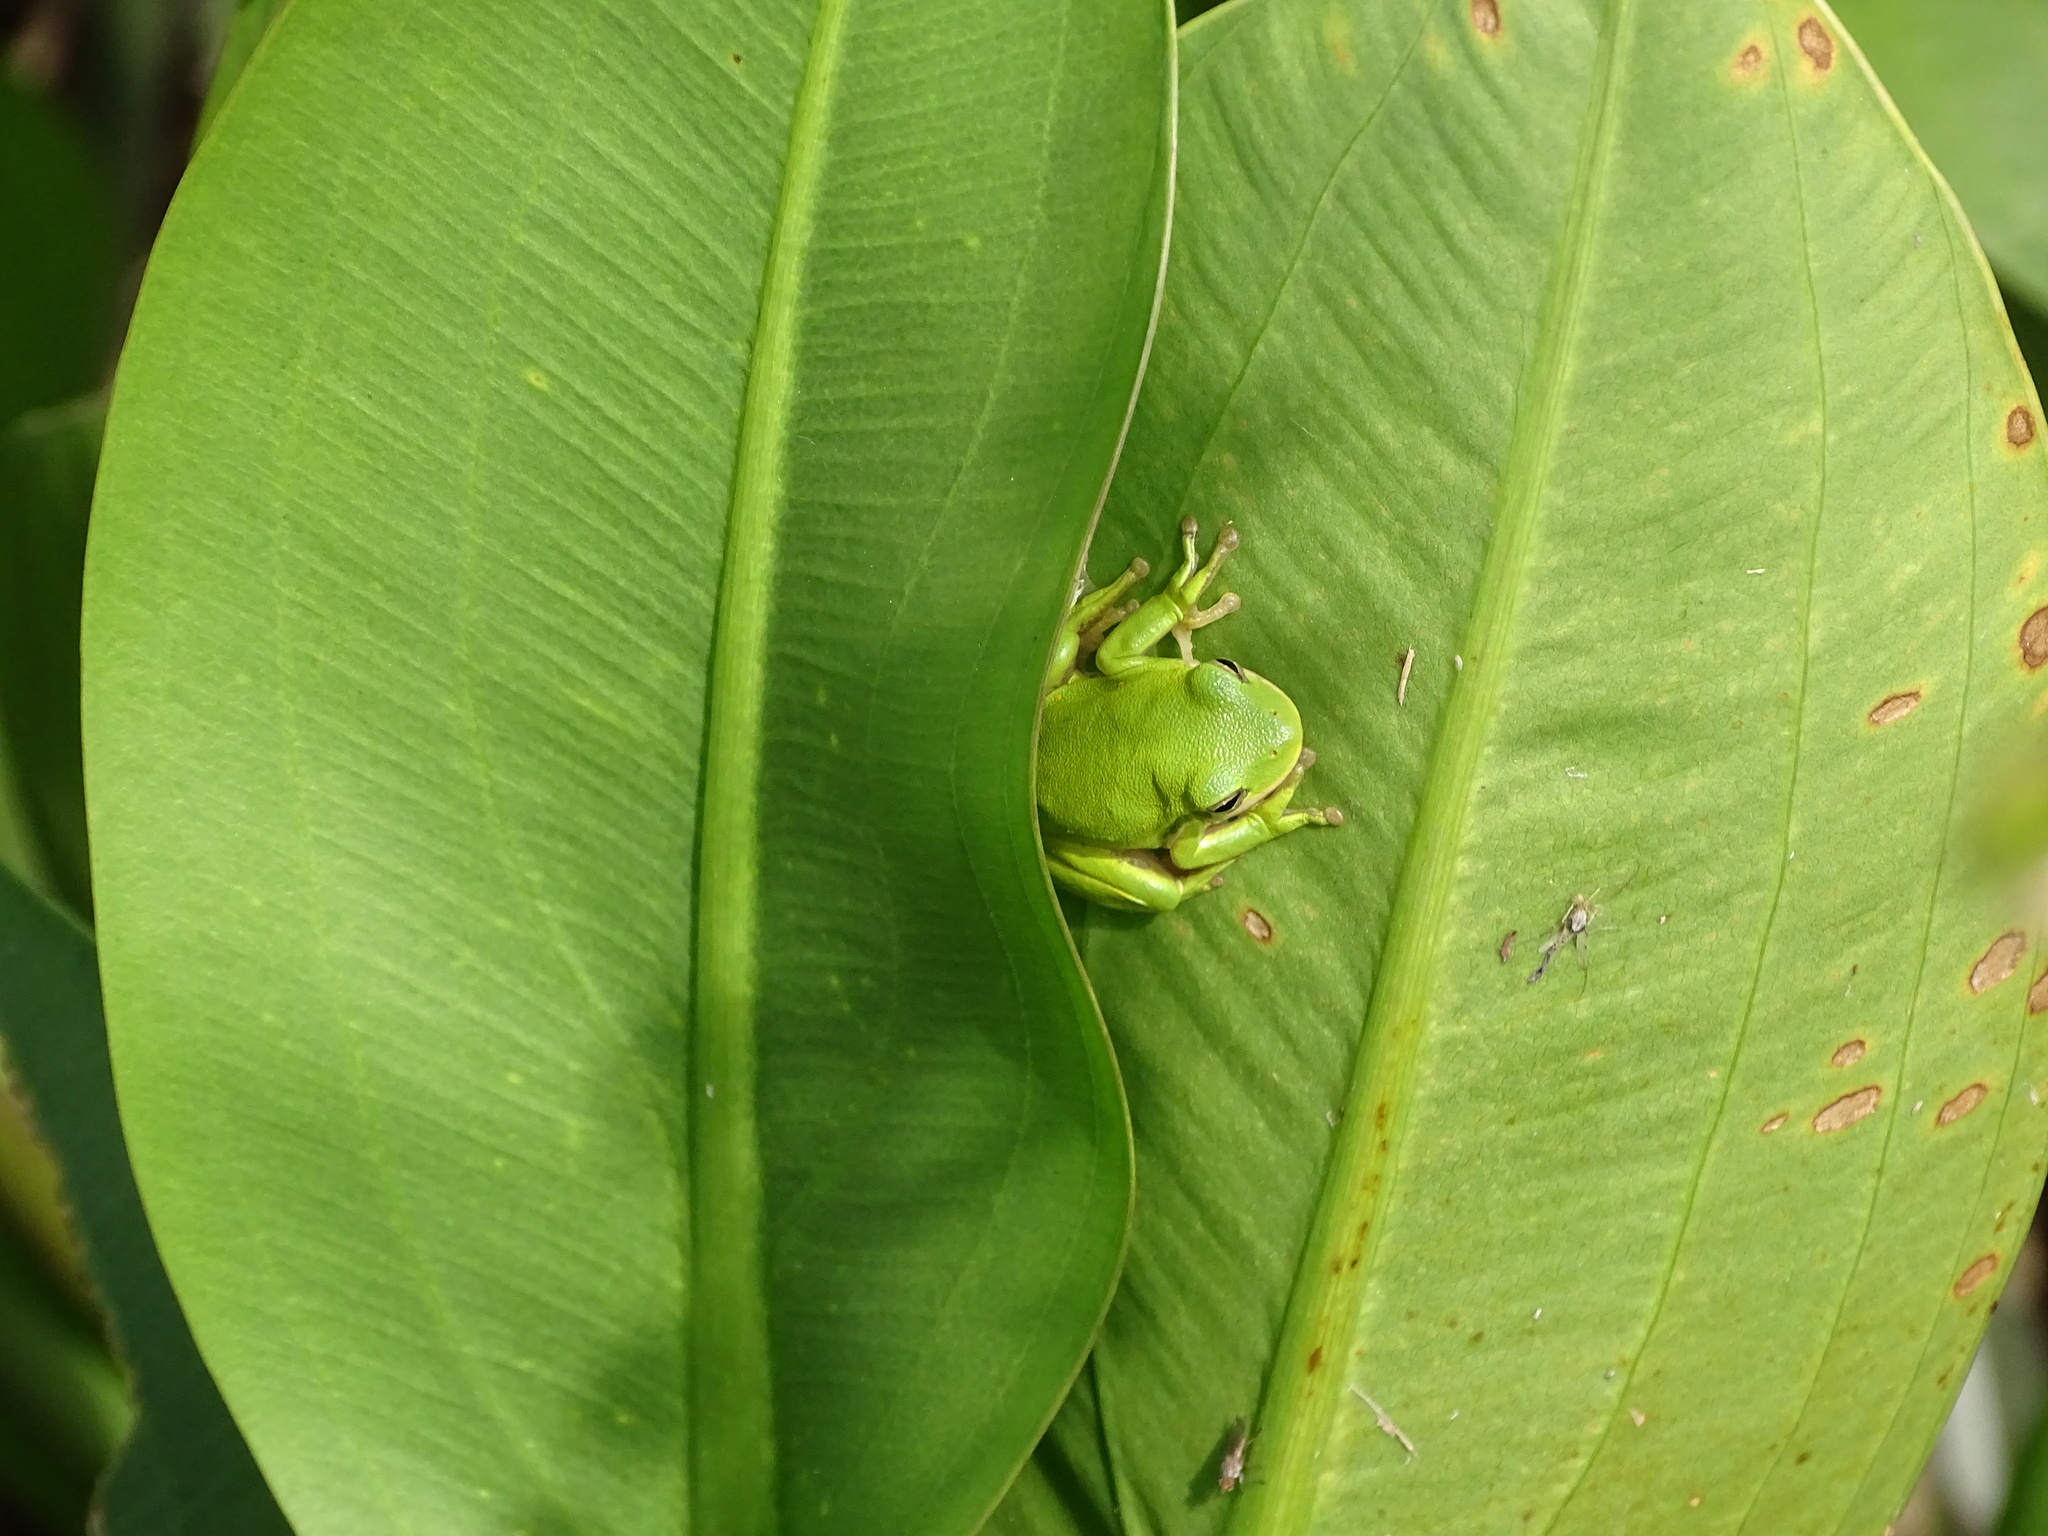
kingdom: Animalia
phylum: Chordata
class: Amphibia
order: Anura
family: Hylidae
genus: Dryophytes
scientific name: Dryophytes cinereus
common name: Green treefrog
